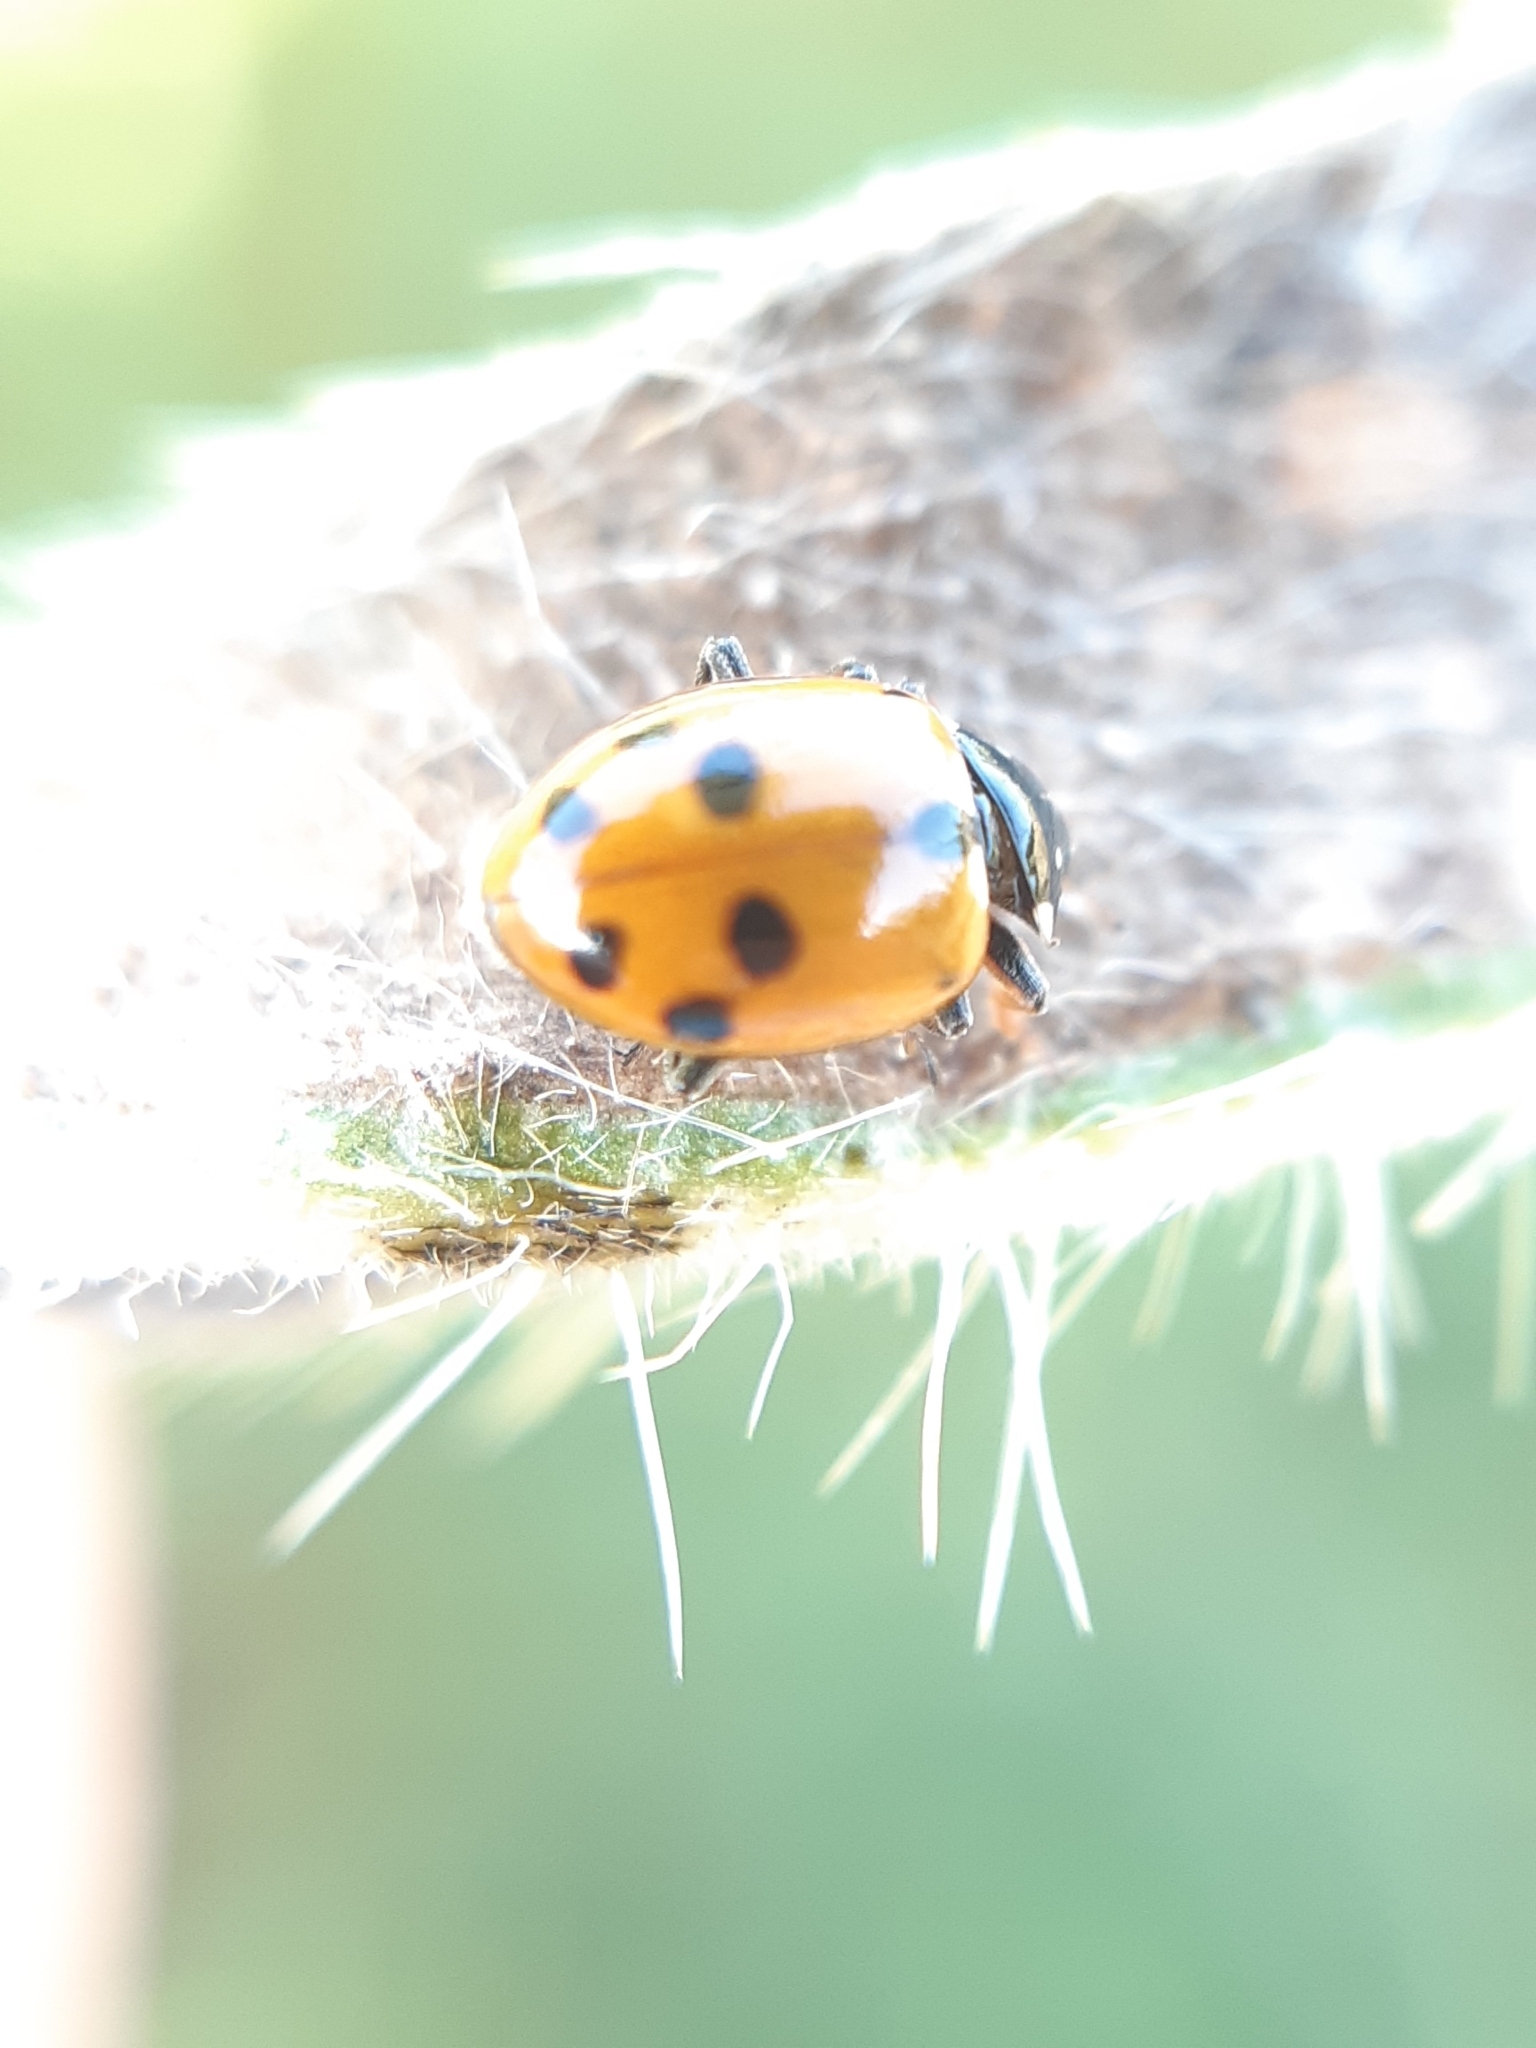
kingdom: Animalia
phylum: Arthropoda
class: Insecta
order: Coleoptera
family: Coccinellidae
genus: Hippodamia
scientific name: Hippodamia variegata
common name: Ladybird beetle
